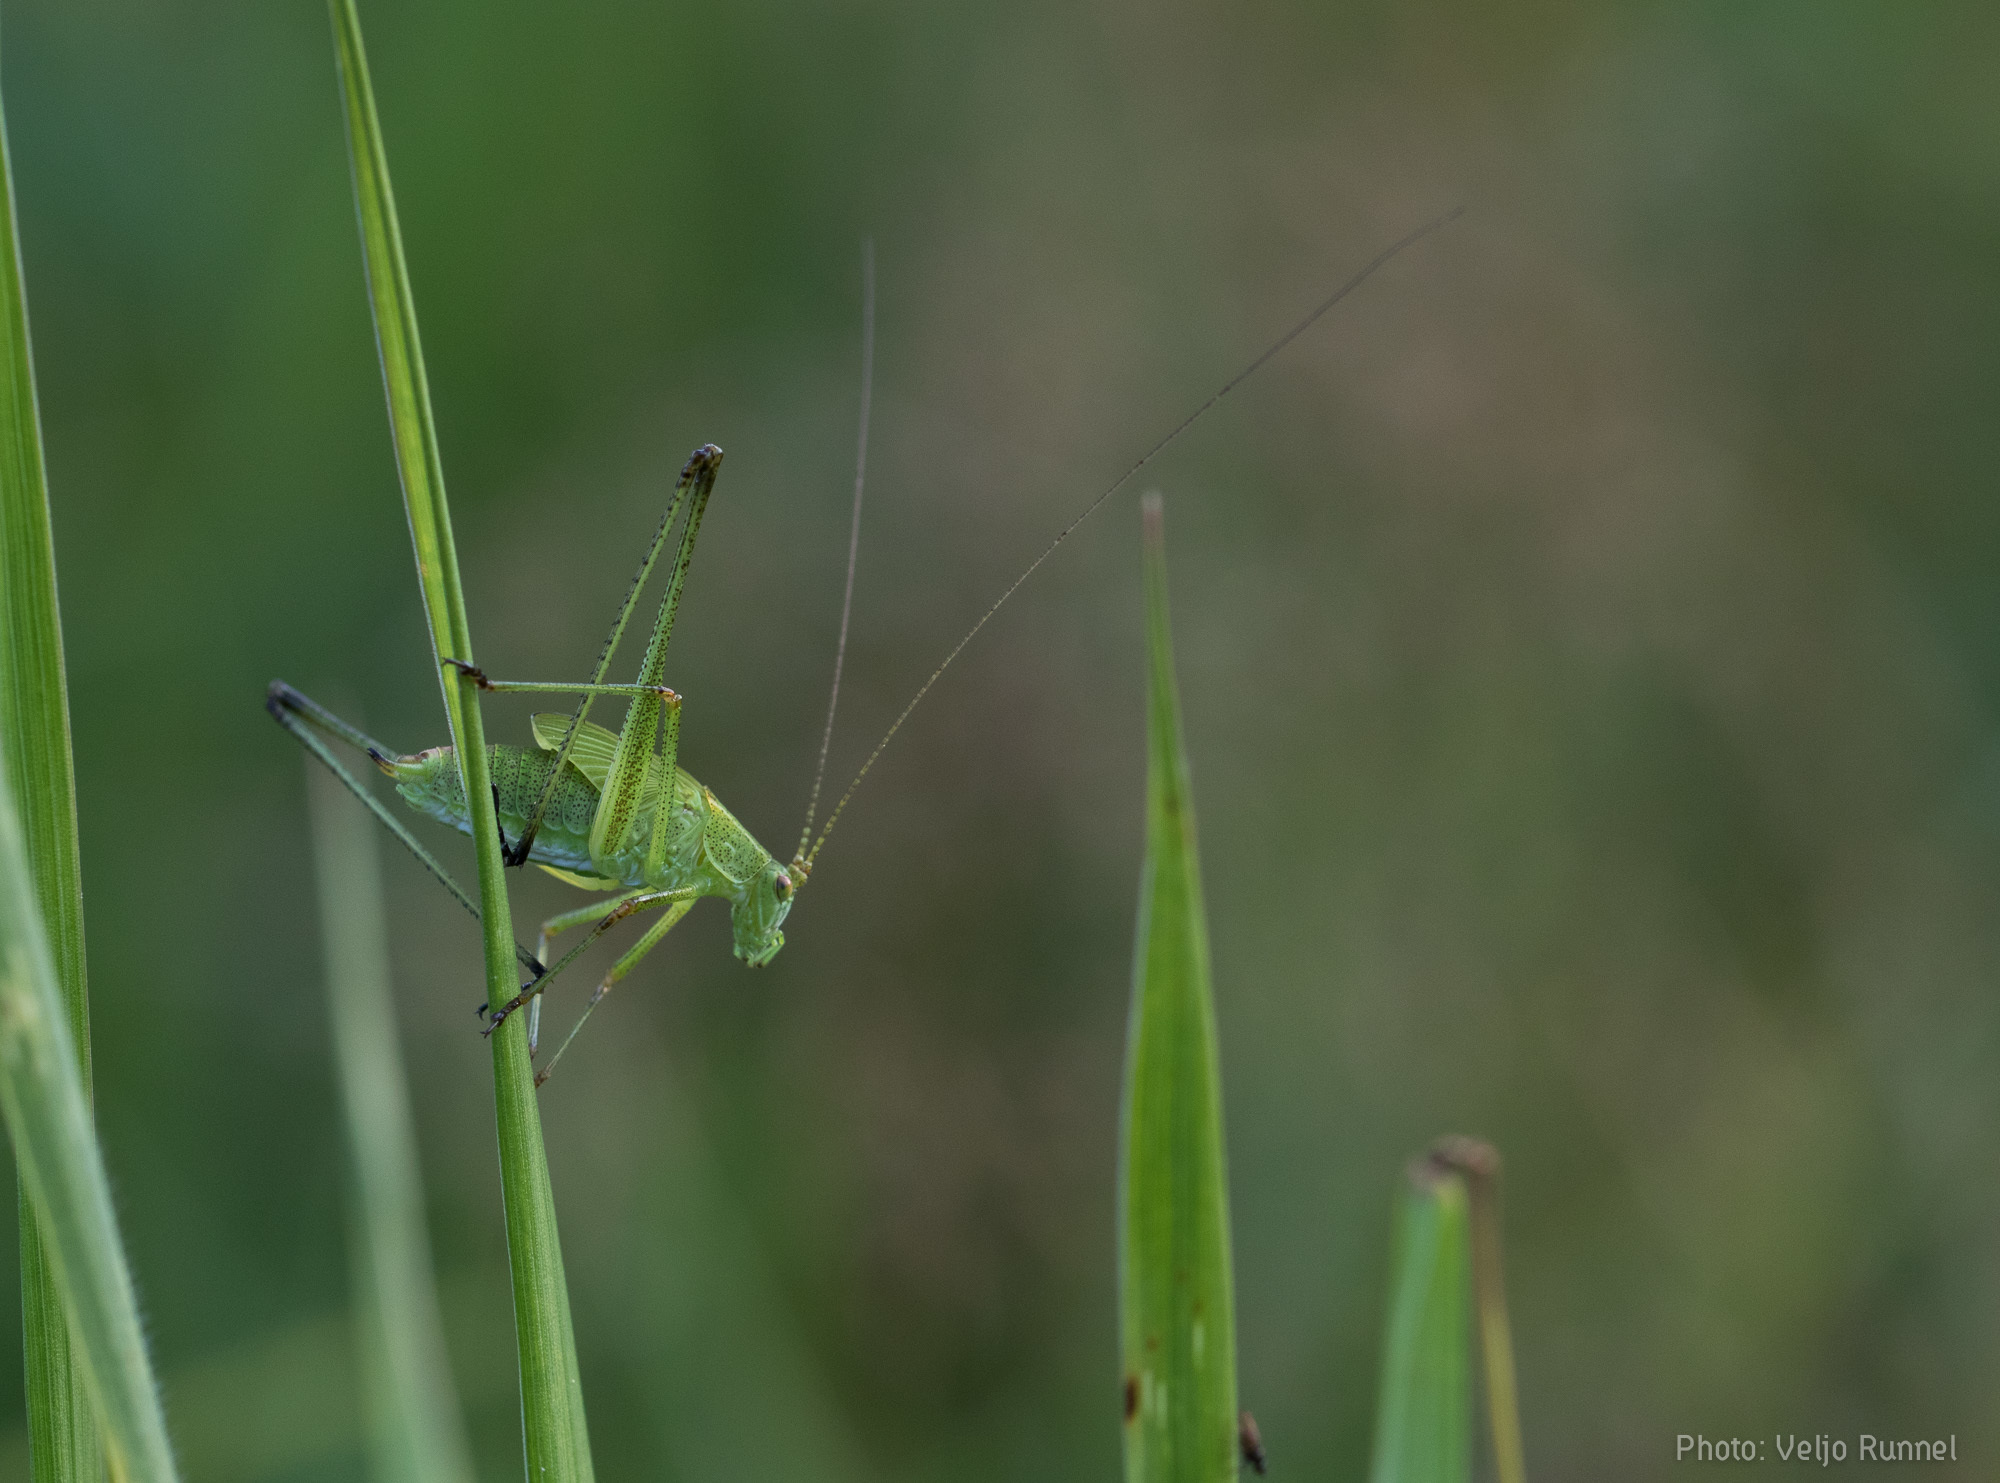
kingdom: Animalia
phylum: Arthropoda
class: Insecta
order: Orthoptera
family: Tettigoniidae
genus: Phaneroptera
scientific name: Phaneroptera falcata
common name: Sickle-bearing bush-cricket
